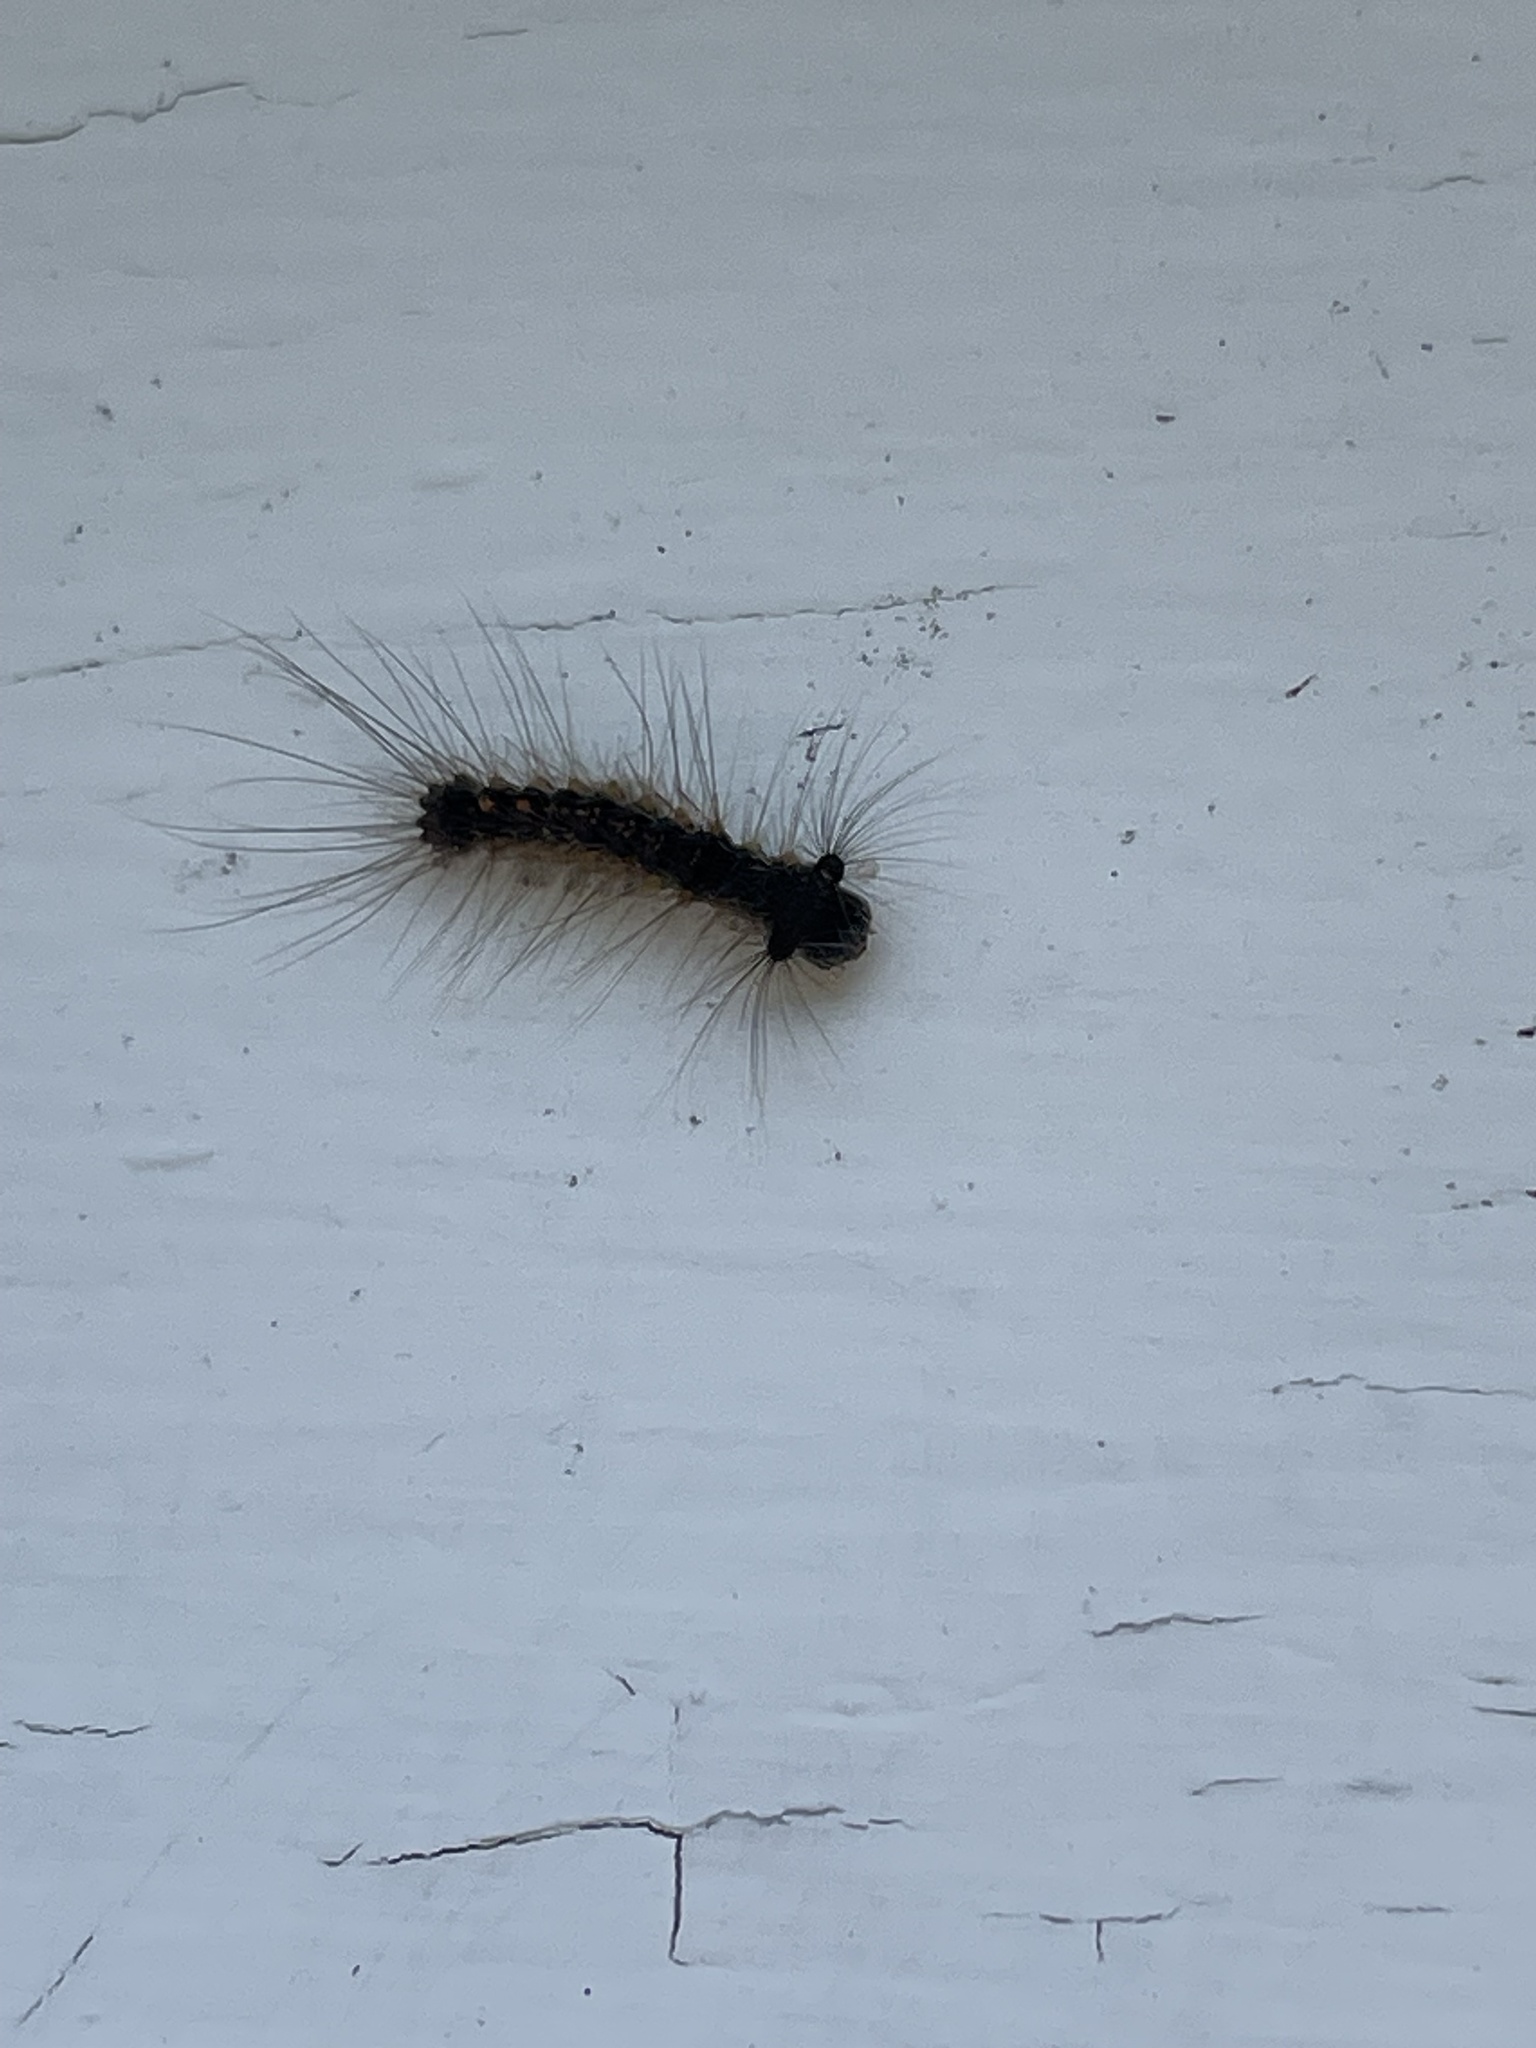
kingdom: Animalia
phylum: Arthropoda
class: Insecta
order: Lepidoptera
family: Erebidae
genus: Lymantria
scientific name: Lymantria dispar
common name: Gypsy moth
